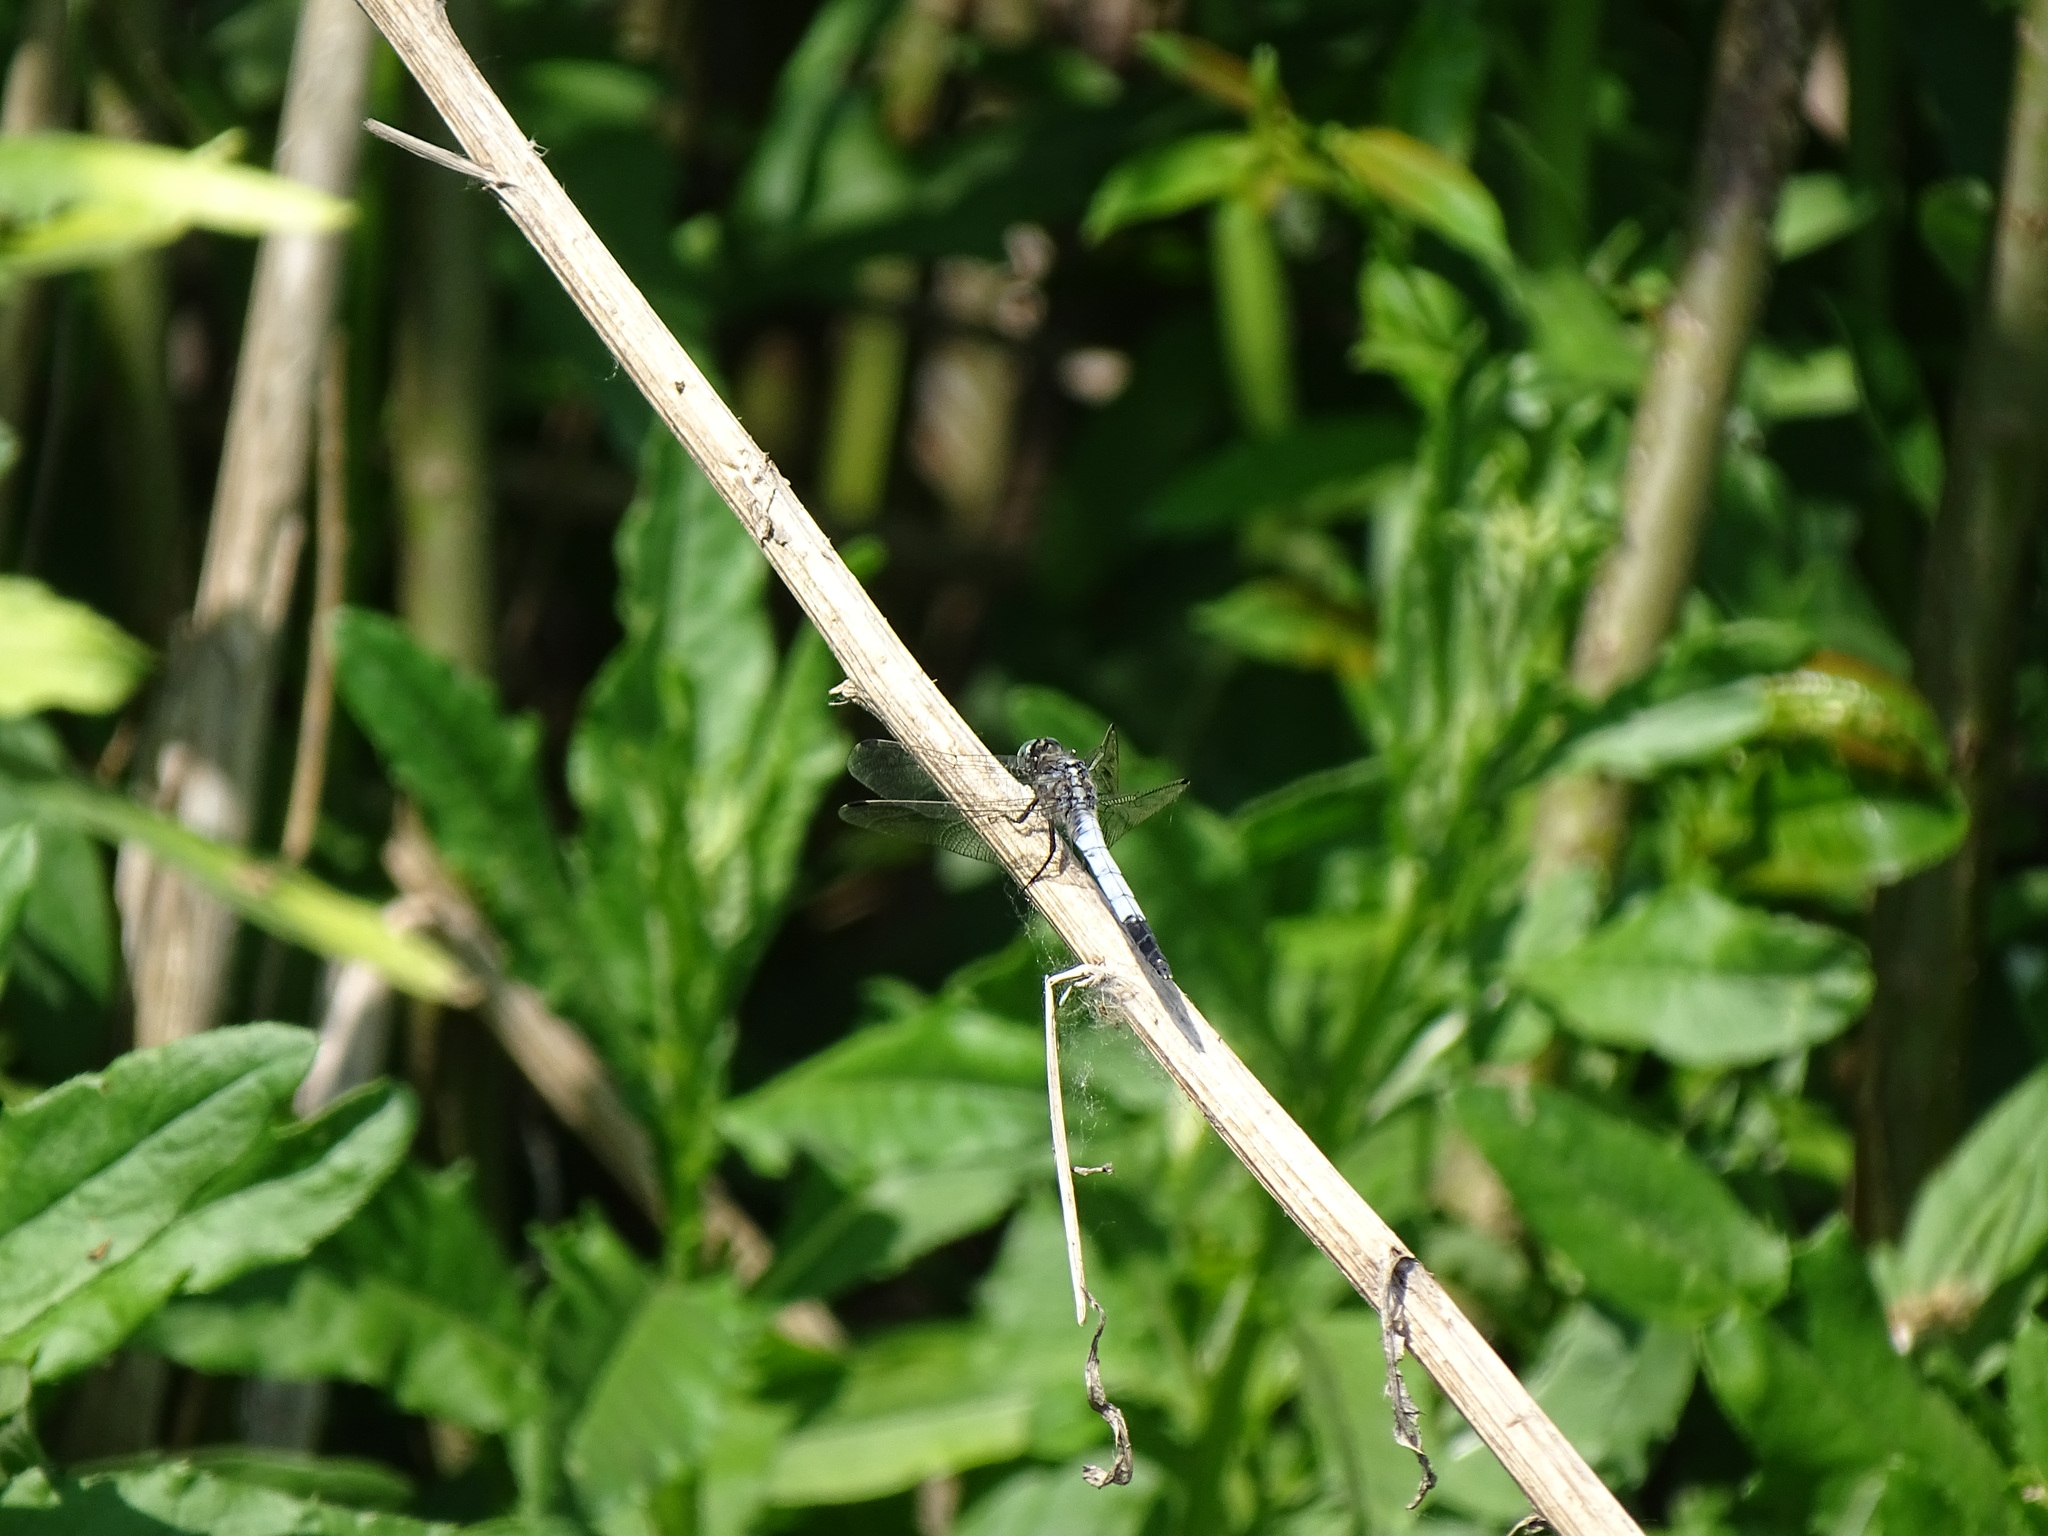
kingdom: Animalia
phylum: Arthropoda
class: Insecta
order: Odonata
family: Libellulidae
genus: Orthetrum
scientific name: Orthetrum albistylum
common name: White-tailed skimmer
